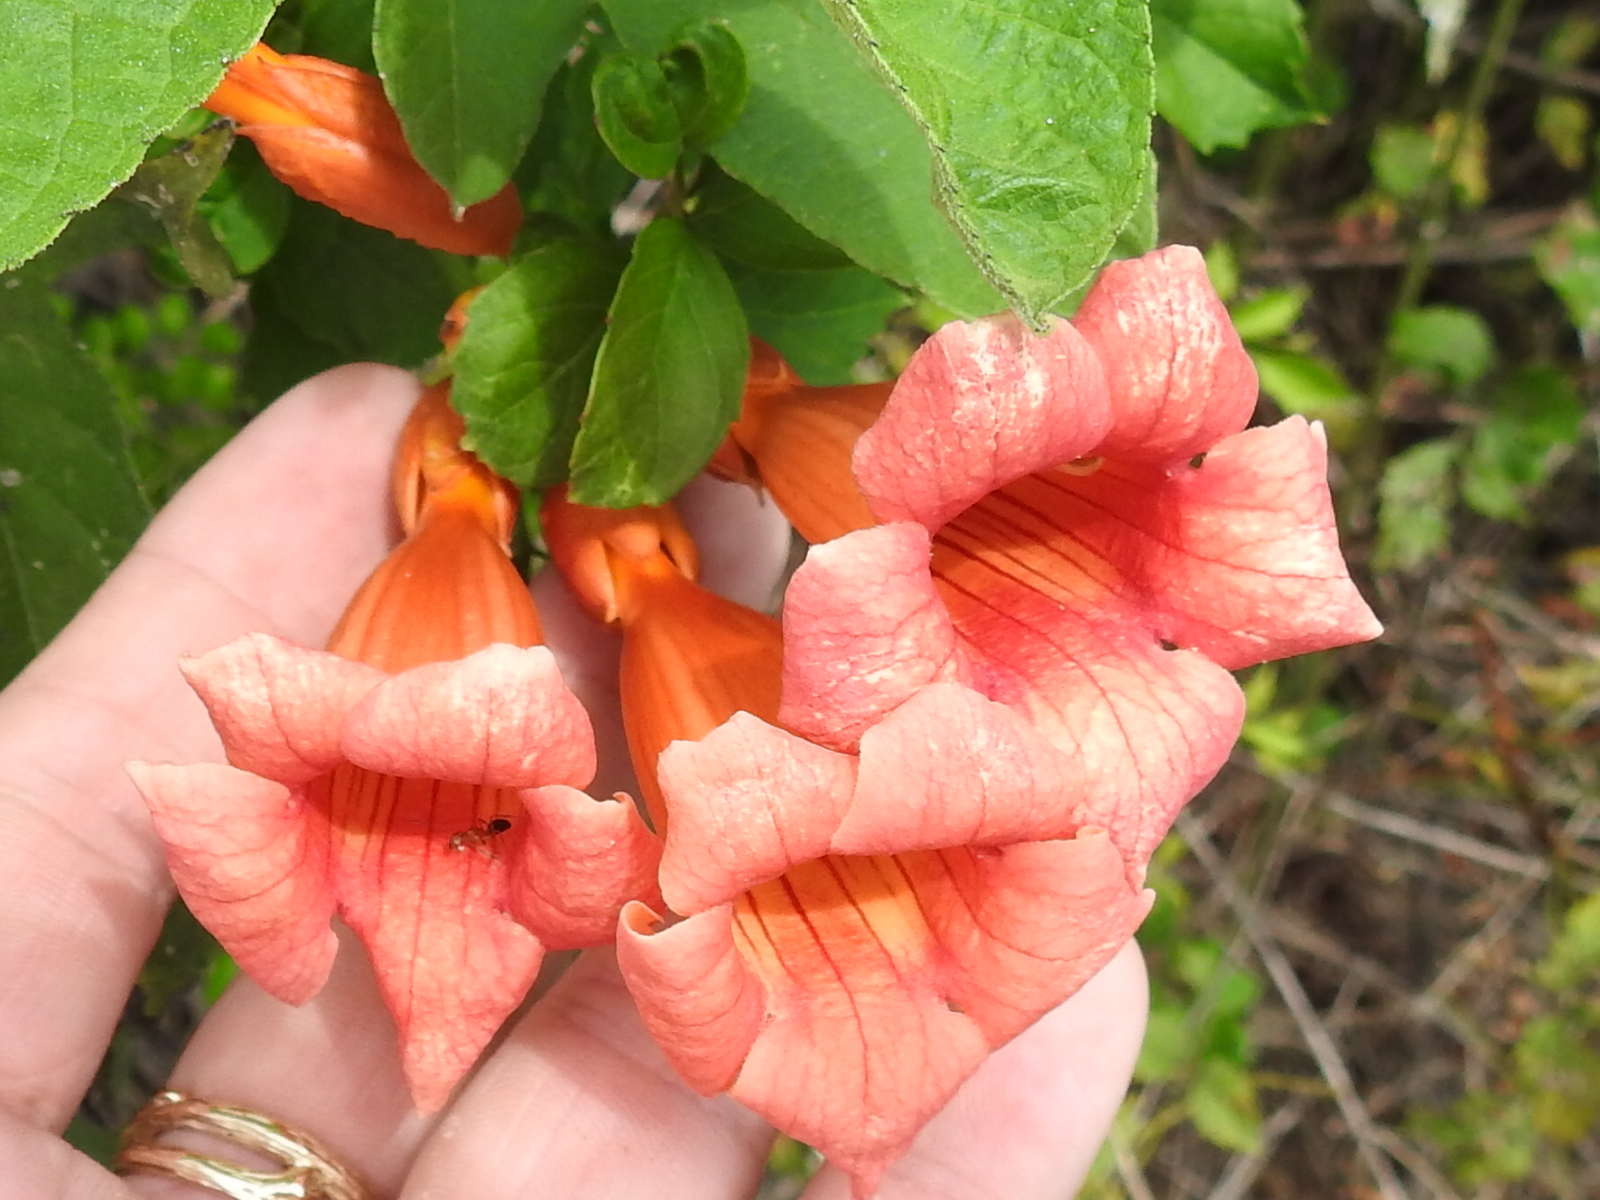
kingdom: Plantae
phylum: Tracheophyta
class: Magnoliopsida
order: Lamiales
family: Bignoniaceae
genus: Campsis
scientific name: Campsis radicans
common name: Trumpet-creeper
